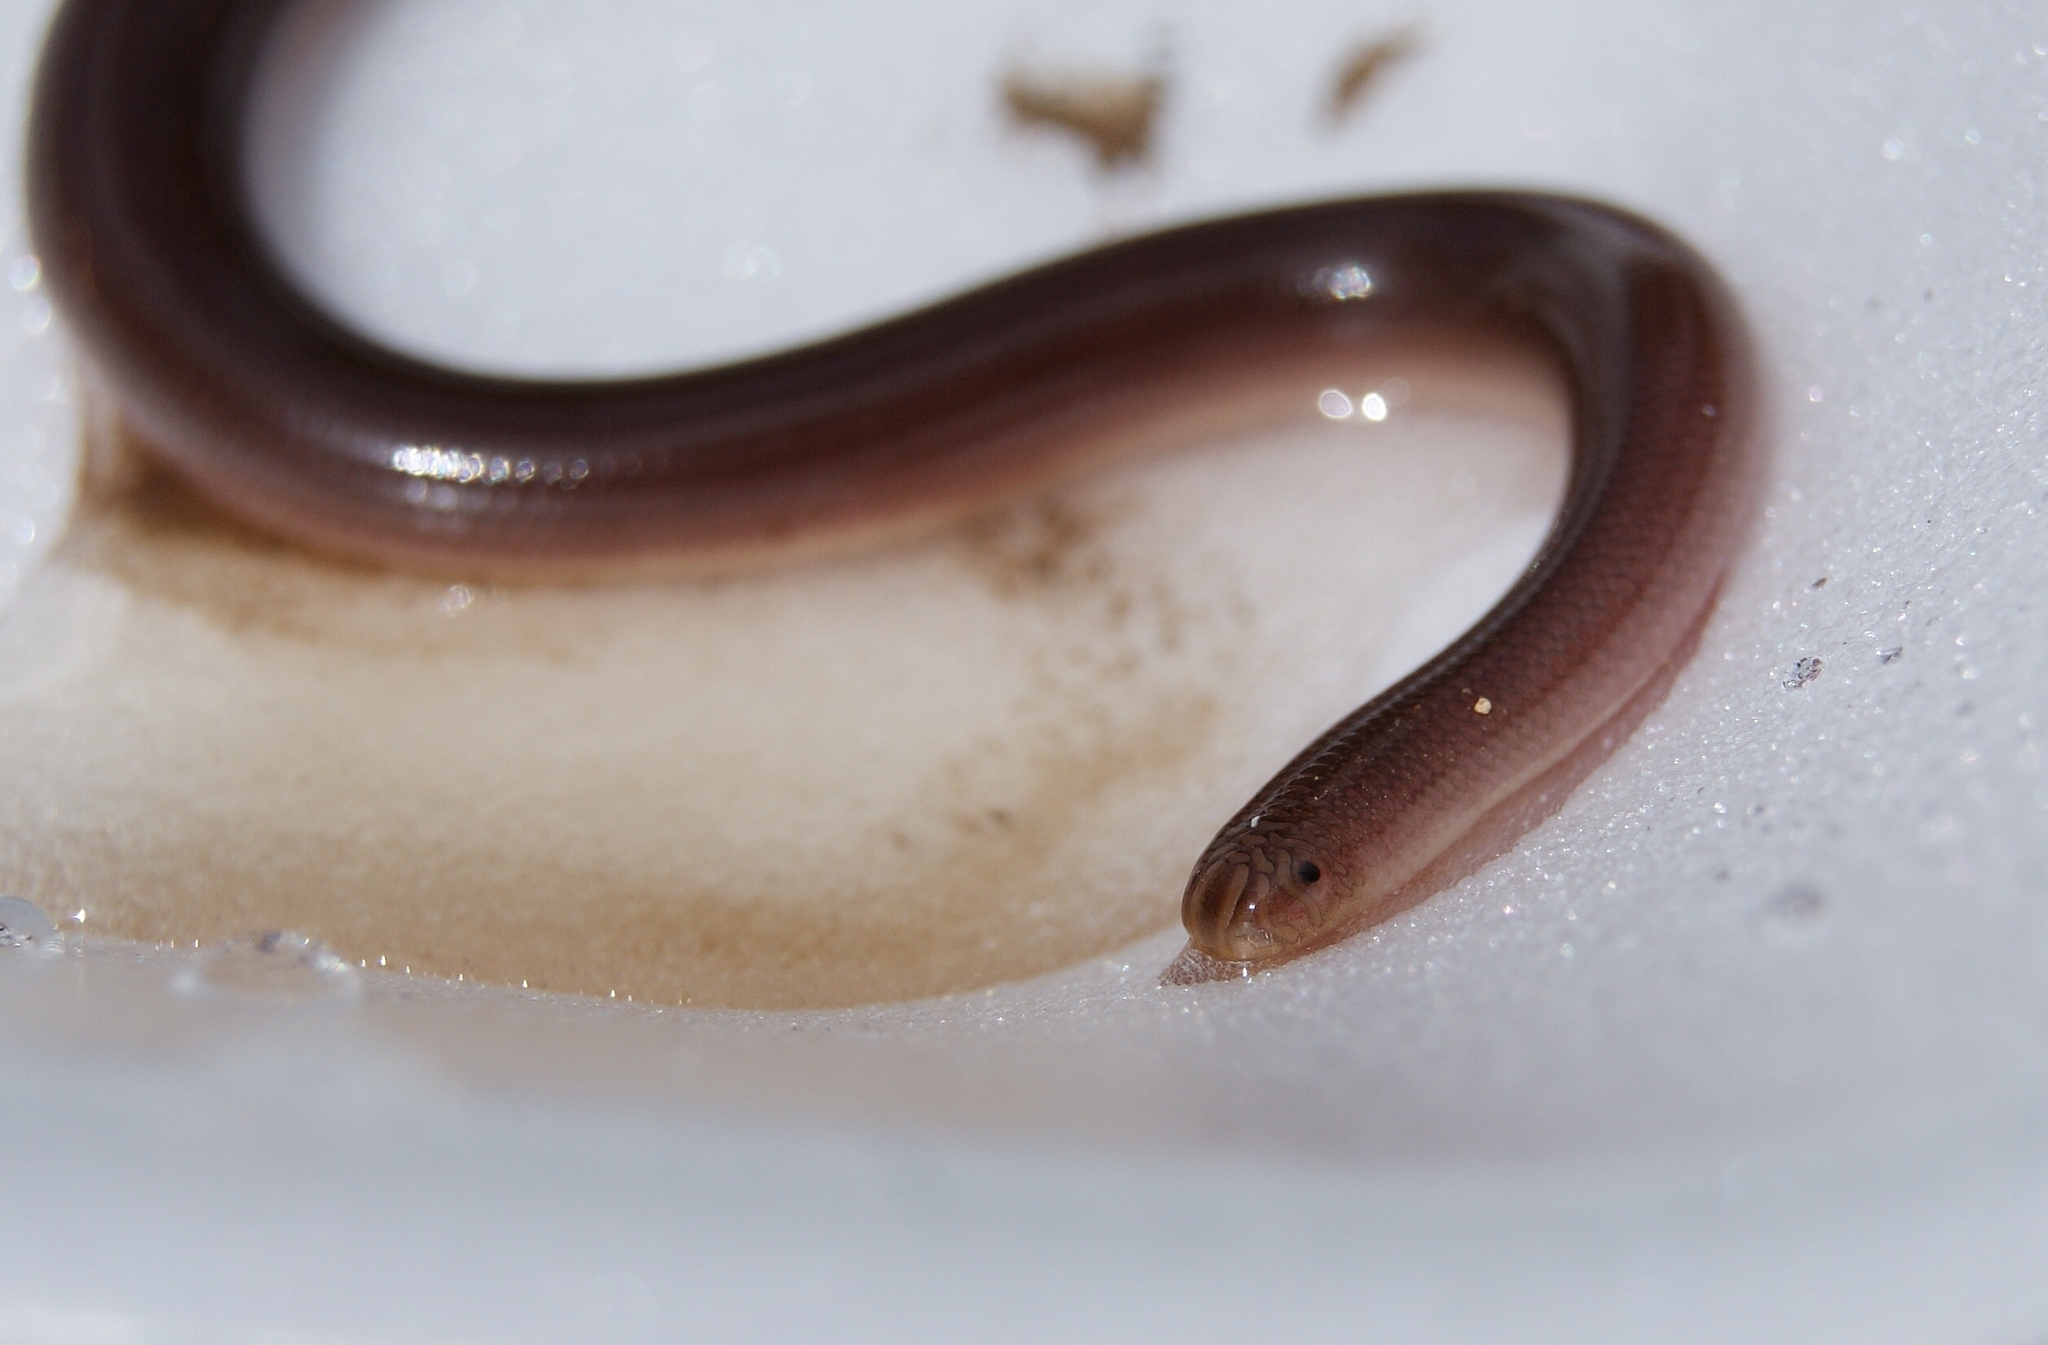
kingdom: Animalia
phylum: Chordata
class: Squamata
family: Typhlopidae
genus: Xerotyphlops
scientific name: Xerotyphlops syriacus
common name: Levantine blindsnake
